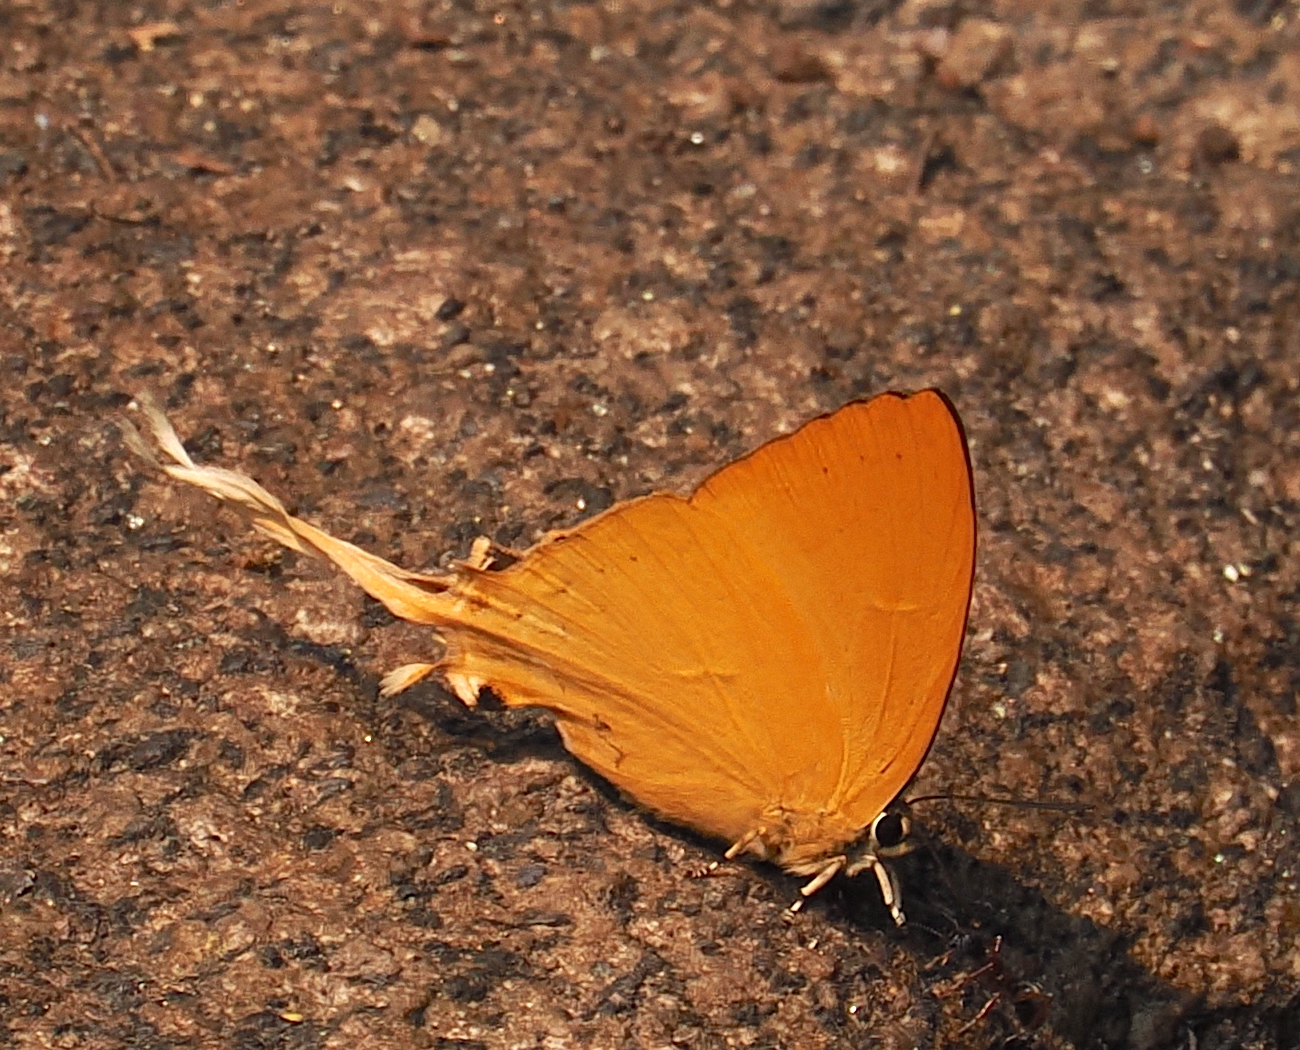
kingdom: Animalia
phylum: Arthropoda
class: Insecta
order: Lepidoptera
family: Lycaenidae
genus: Ticherra
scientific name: Ticherra acte
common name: Blue imperial
